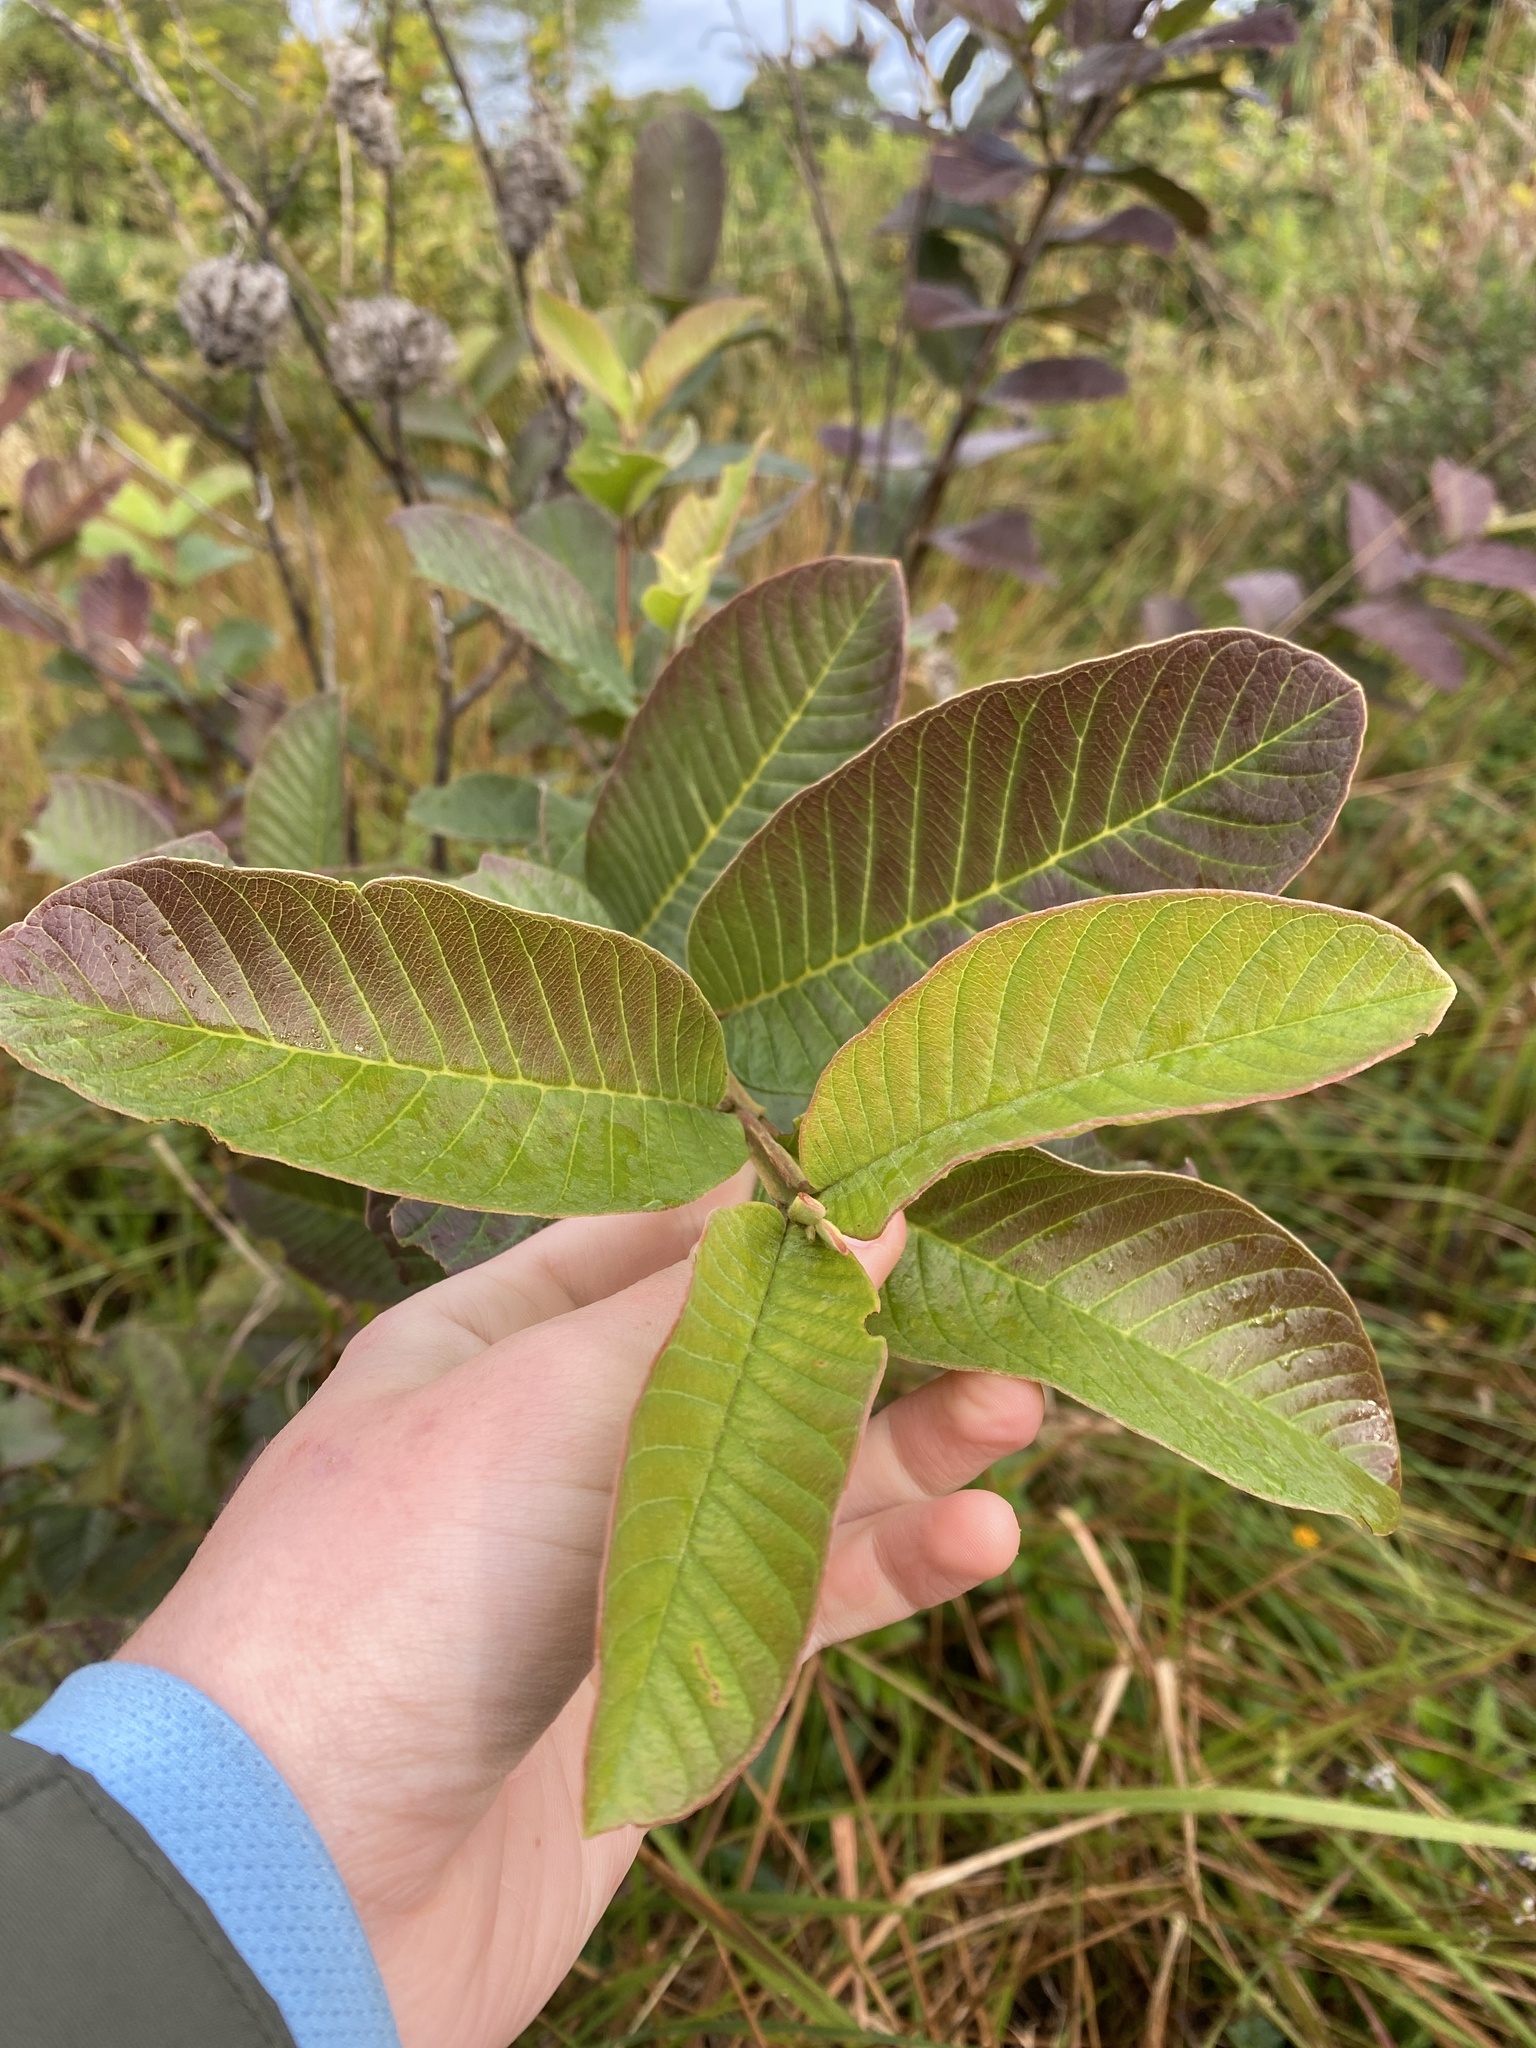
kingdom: Plantae
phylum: Tracheophyta
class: Magnoliopsida
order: Myrtales
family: Myrtaceae
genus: Psidium
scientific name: Psidium guajava
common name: Guava
